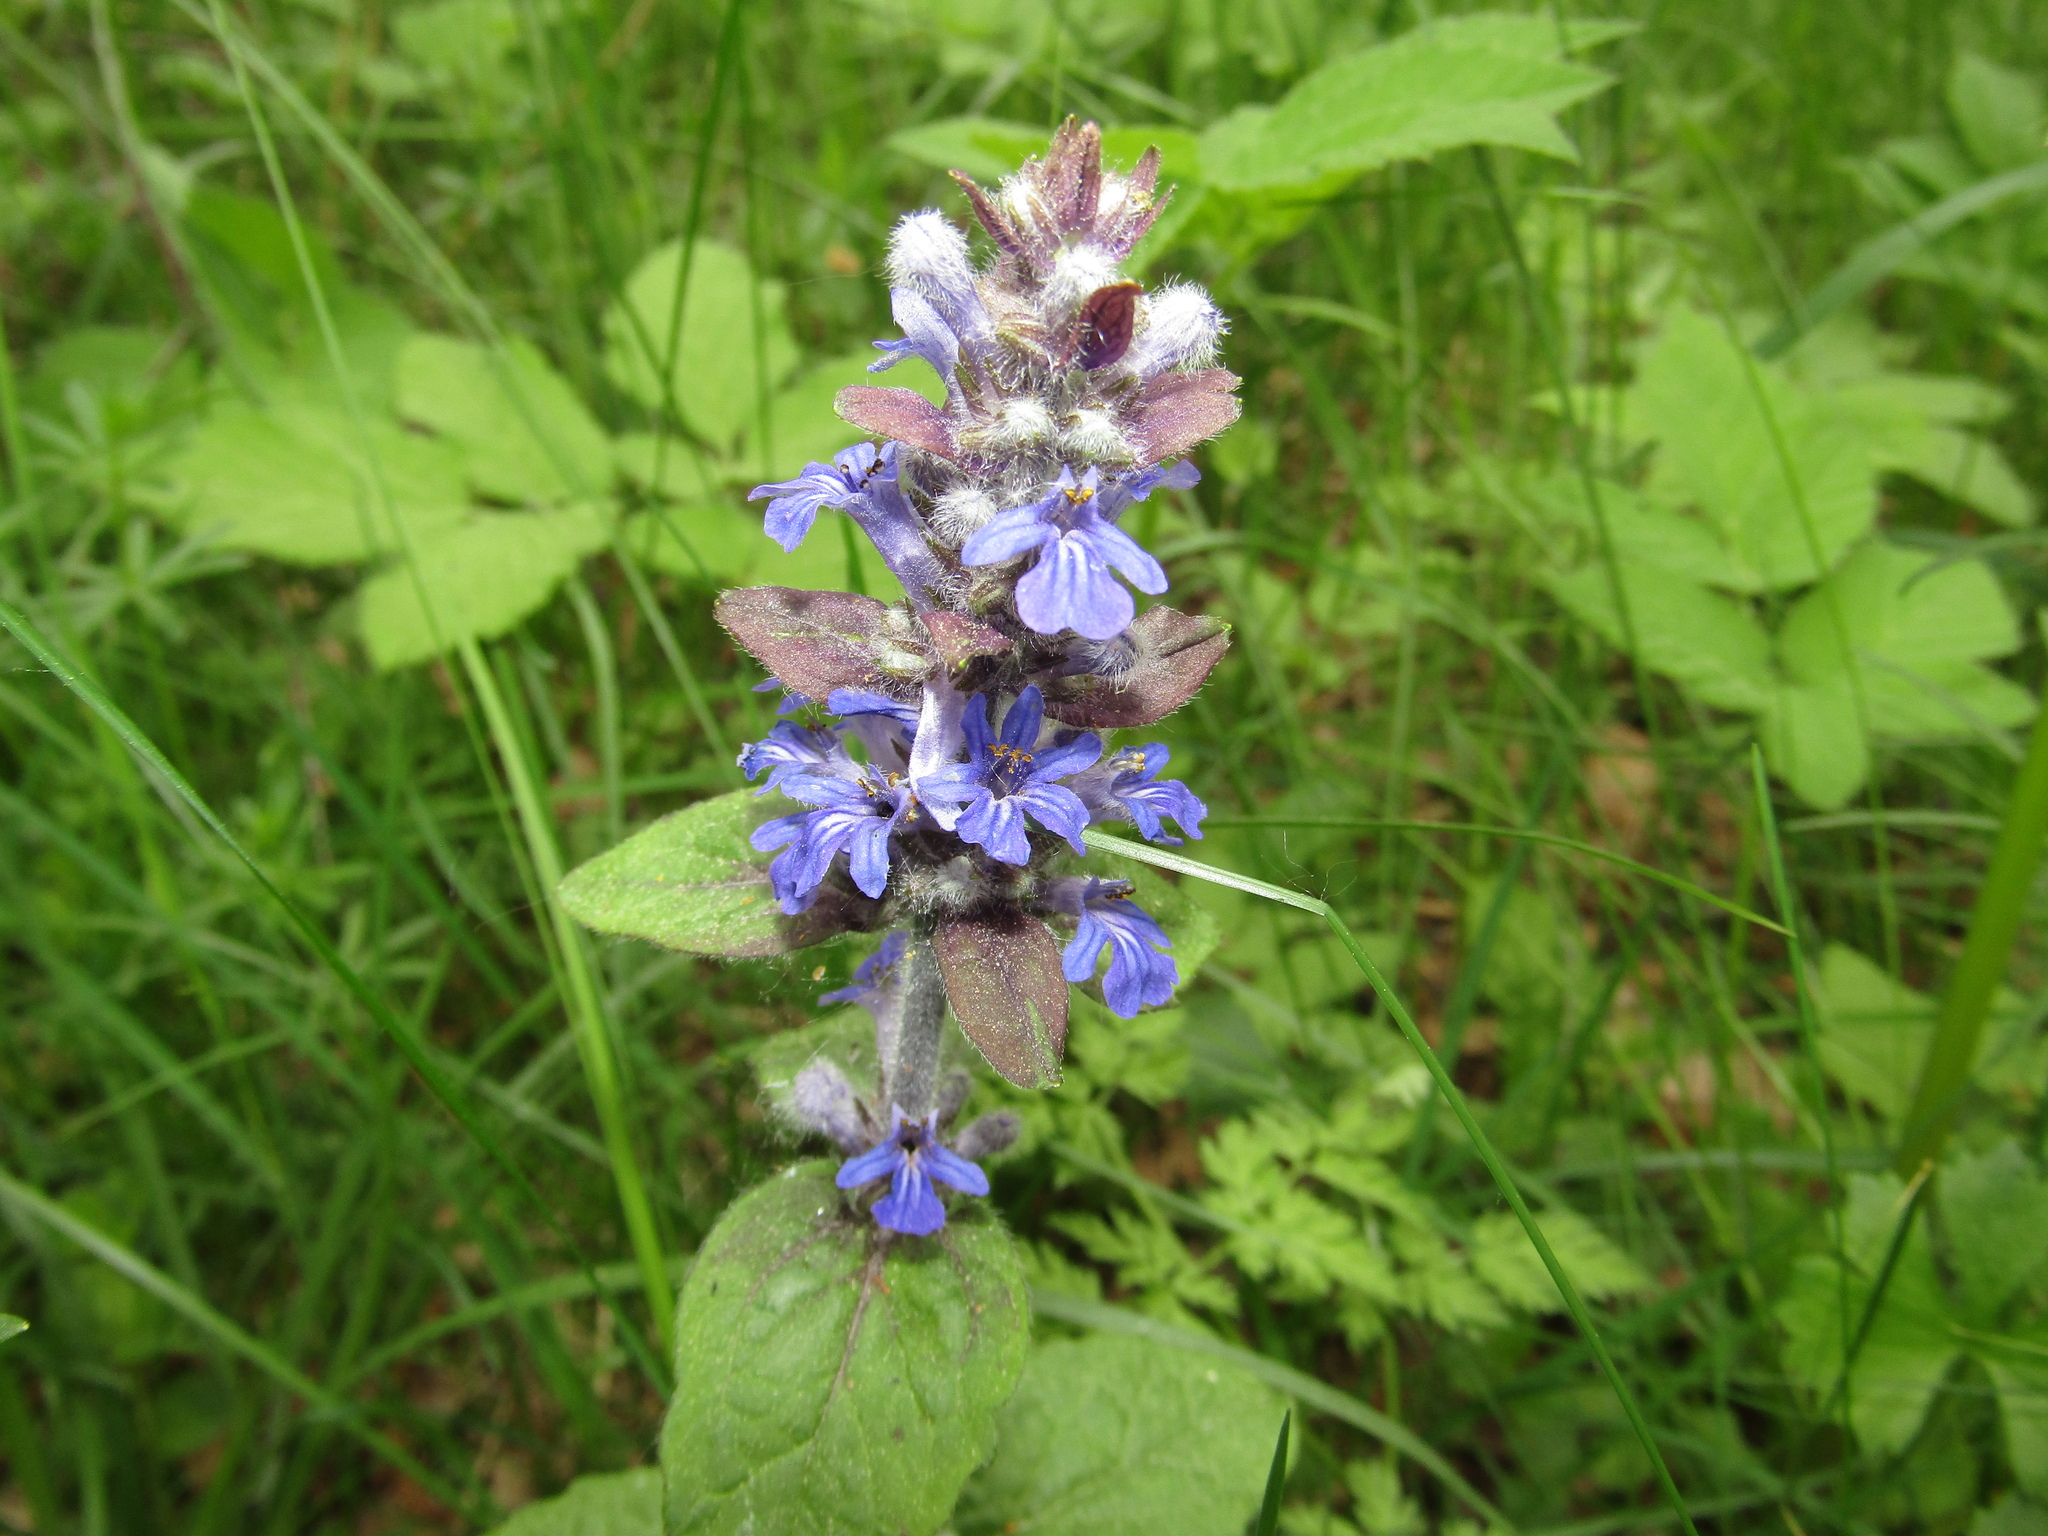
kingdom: Plantae
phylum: Tracheophyta
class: Magnoliopsida
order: Lamiales
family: Lamiaceae
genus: Ajuga
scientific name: Ajuga reptans
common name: Bugle
